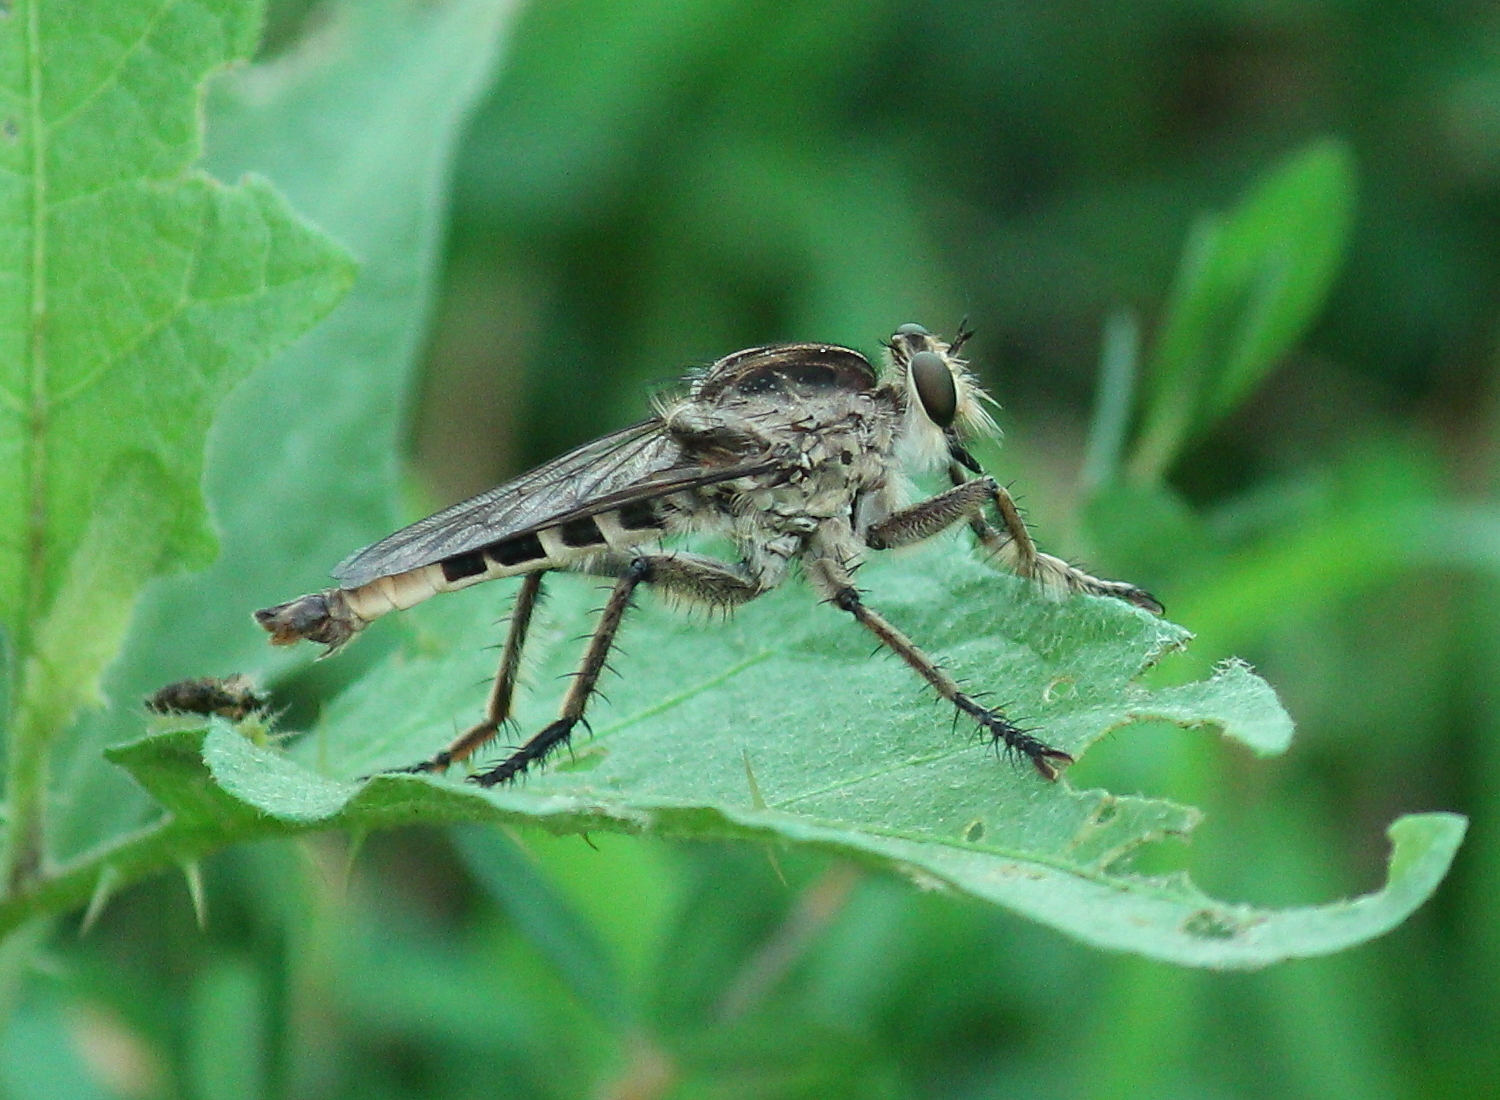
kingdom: Animalia
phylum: Arthropoda
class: Insecta
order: Diptera
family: Asilidae
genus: Triorla
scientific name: Triorla interrupta
